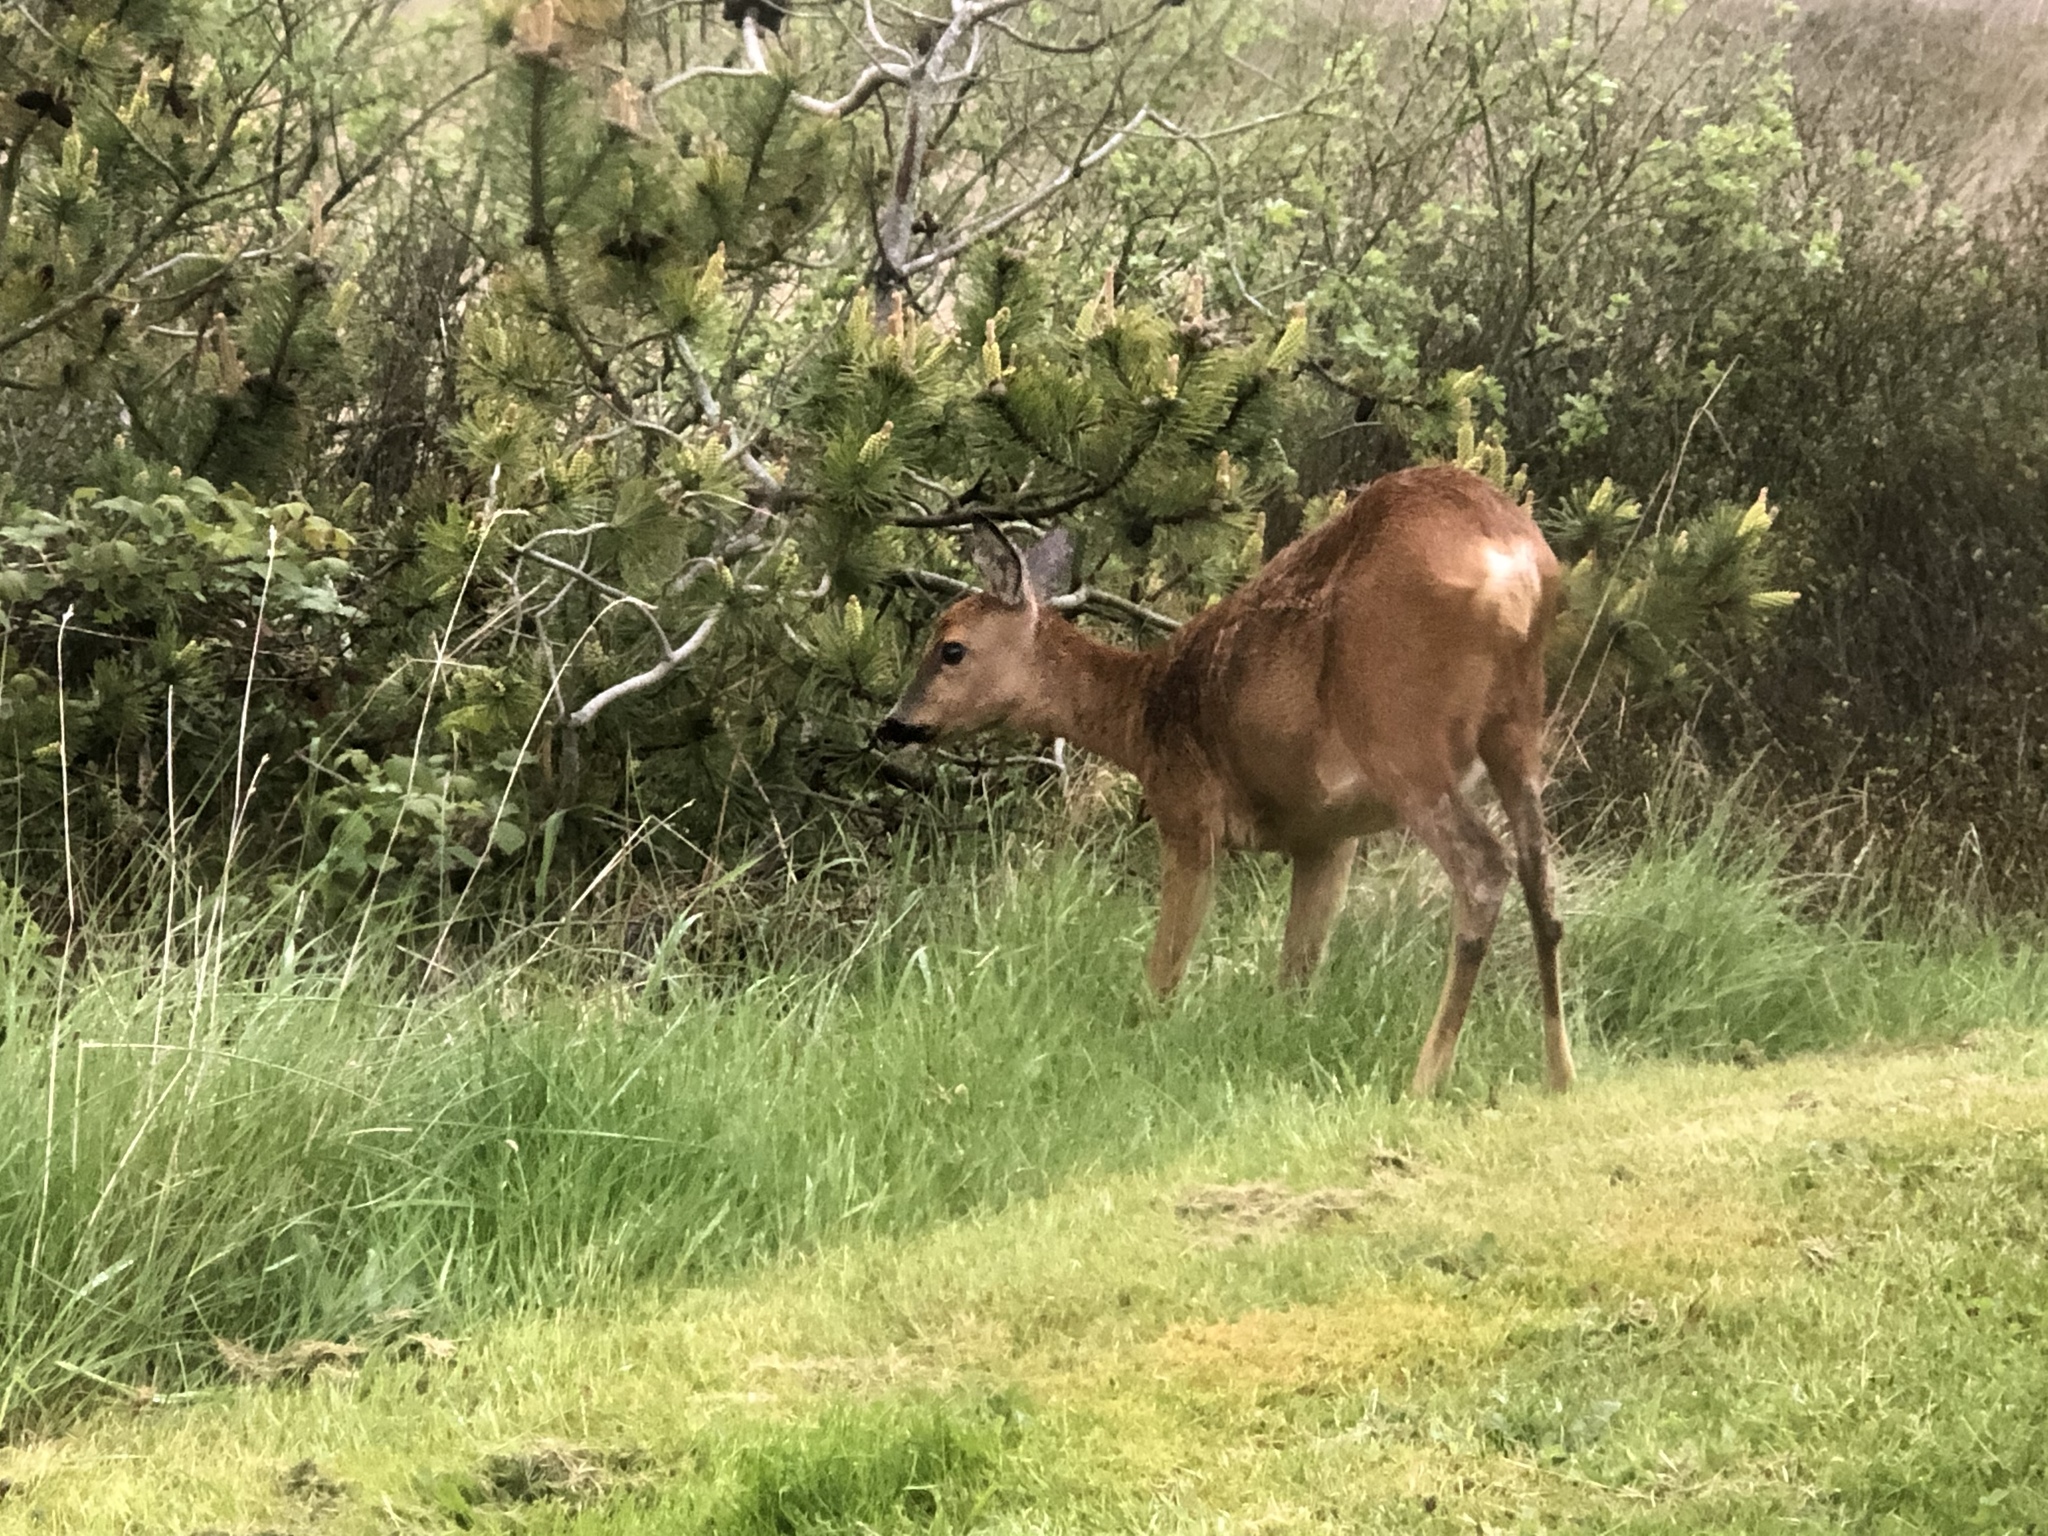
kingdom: Animalia
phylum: Chordata
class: Mammalia
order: Artiodactyla
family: Cervidae
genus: Capreolus
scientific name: Capreolus capreolus
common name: Western roe deer
